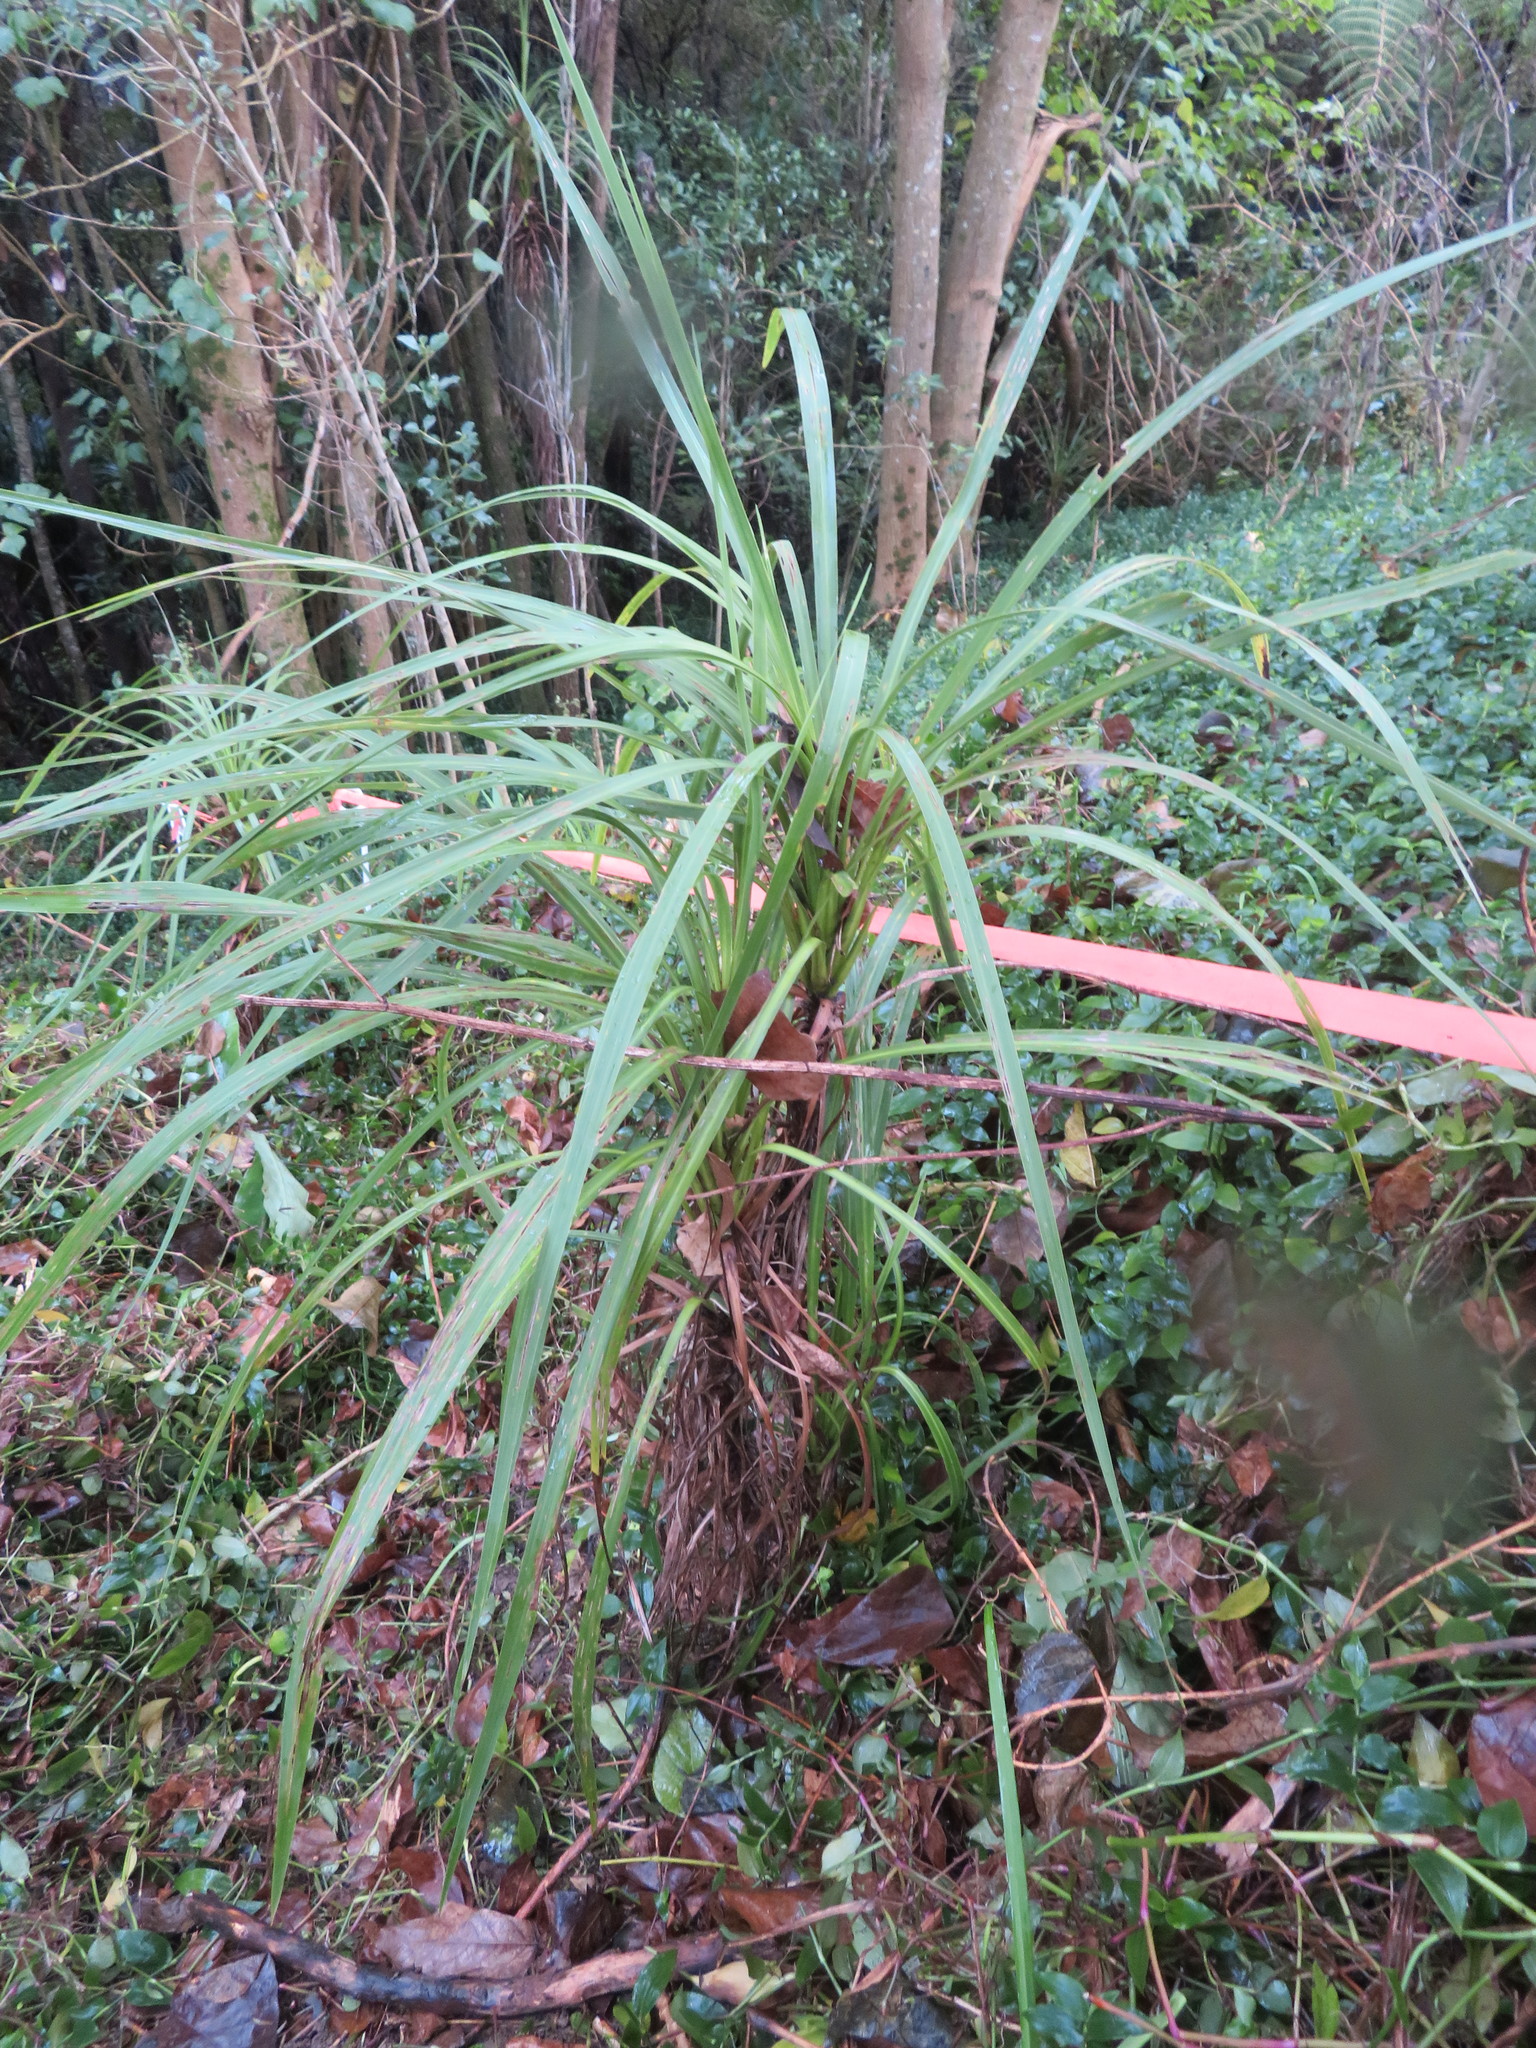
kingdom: Plantae
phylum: Tracheophyta
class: Liliopsida
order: Asparagales
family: Asparagaceae
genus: Cordyline
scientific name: Cordyline australis
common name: Cabbage-palm
